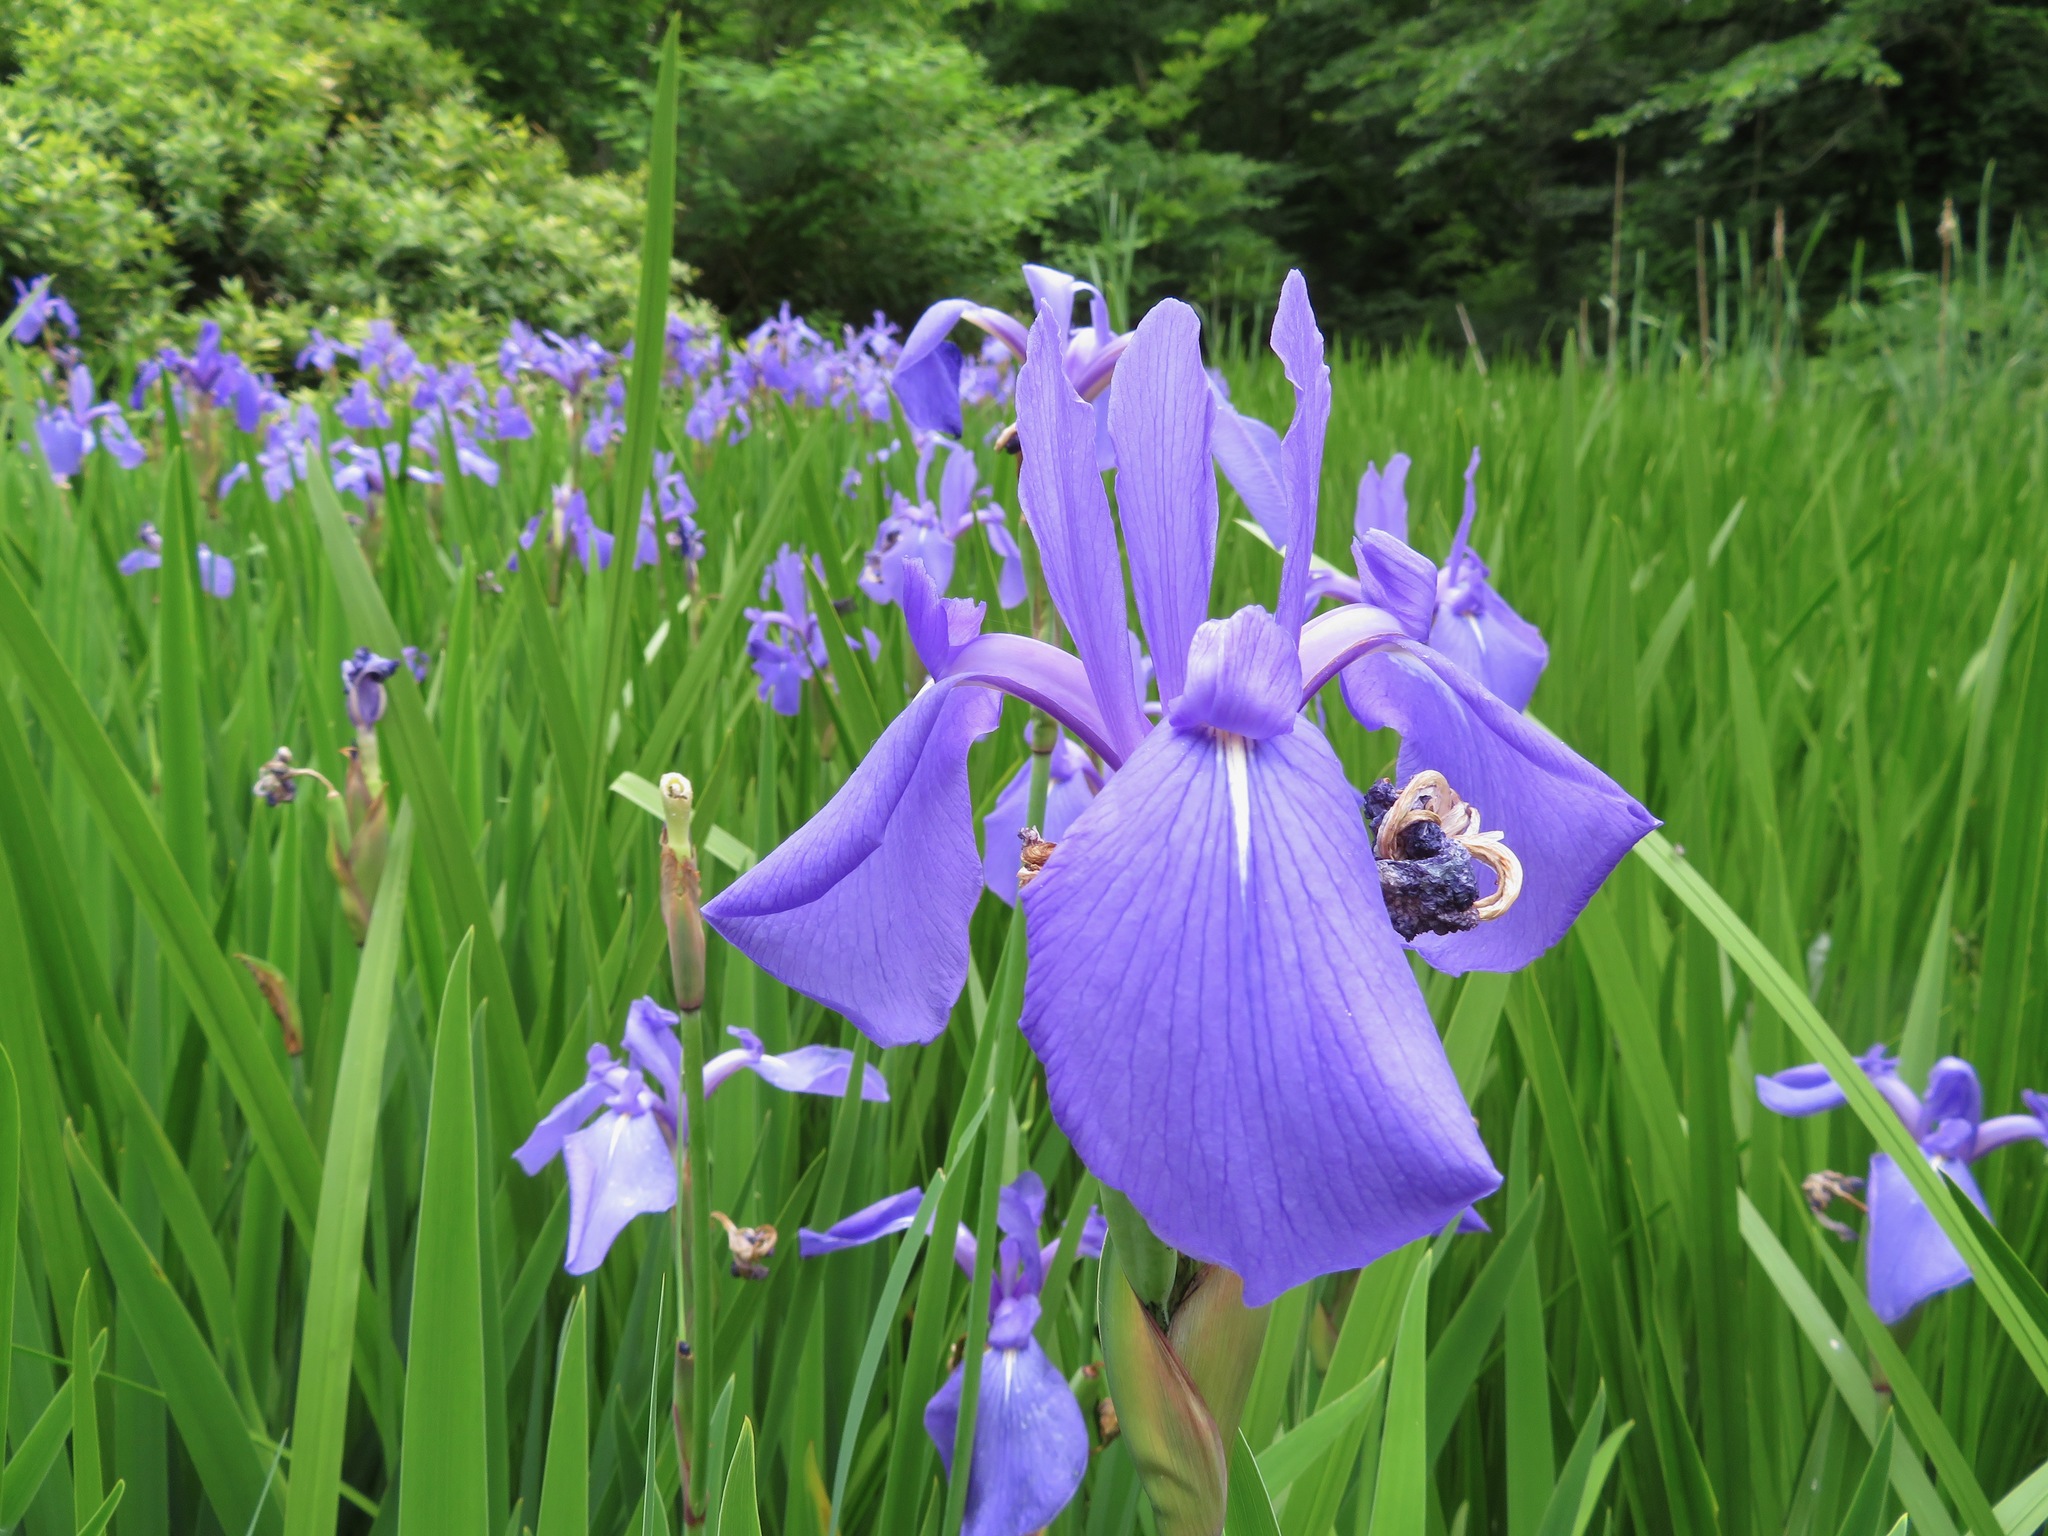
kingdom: Plantae
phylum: Tracheophyta
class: Liliopsida
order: Asparagales
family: Iridaceae
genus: Iris
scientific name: Iris laevigata
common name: Japanese iris
